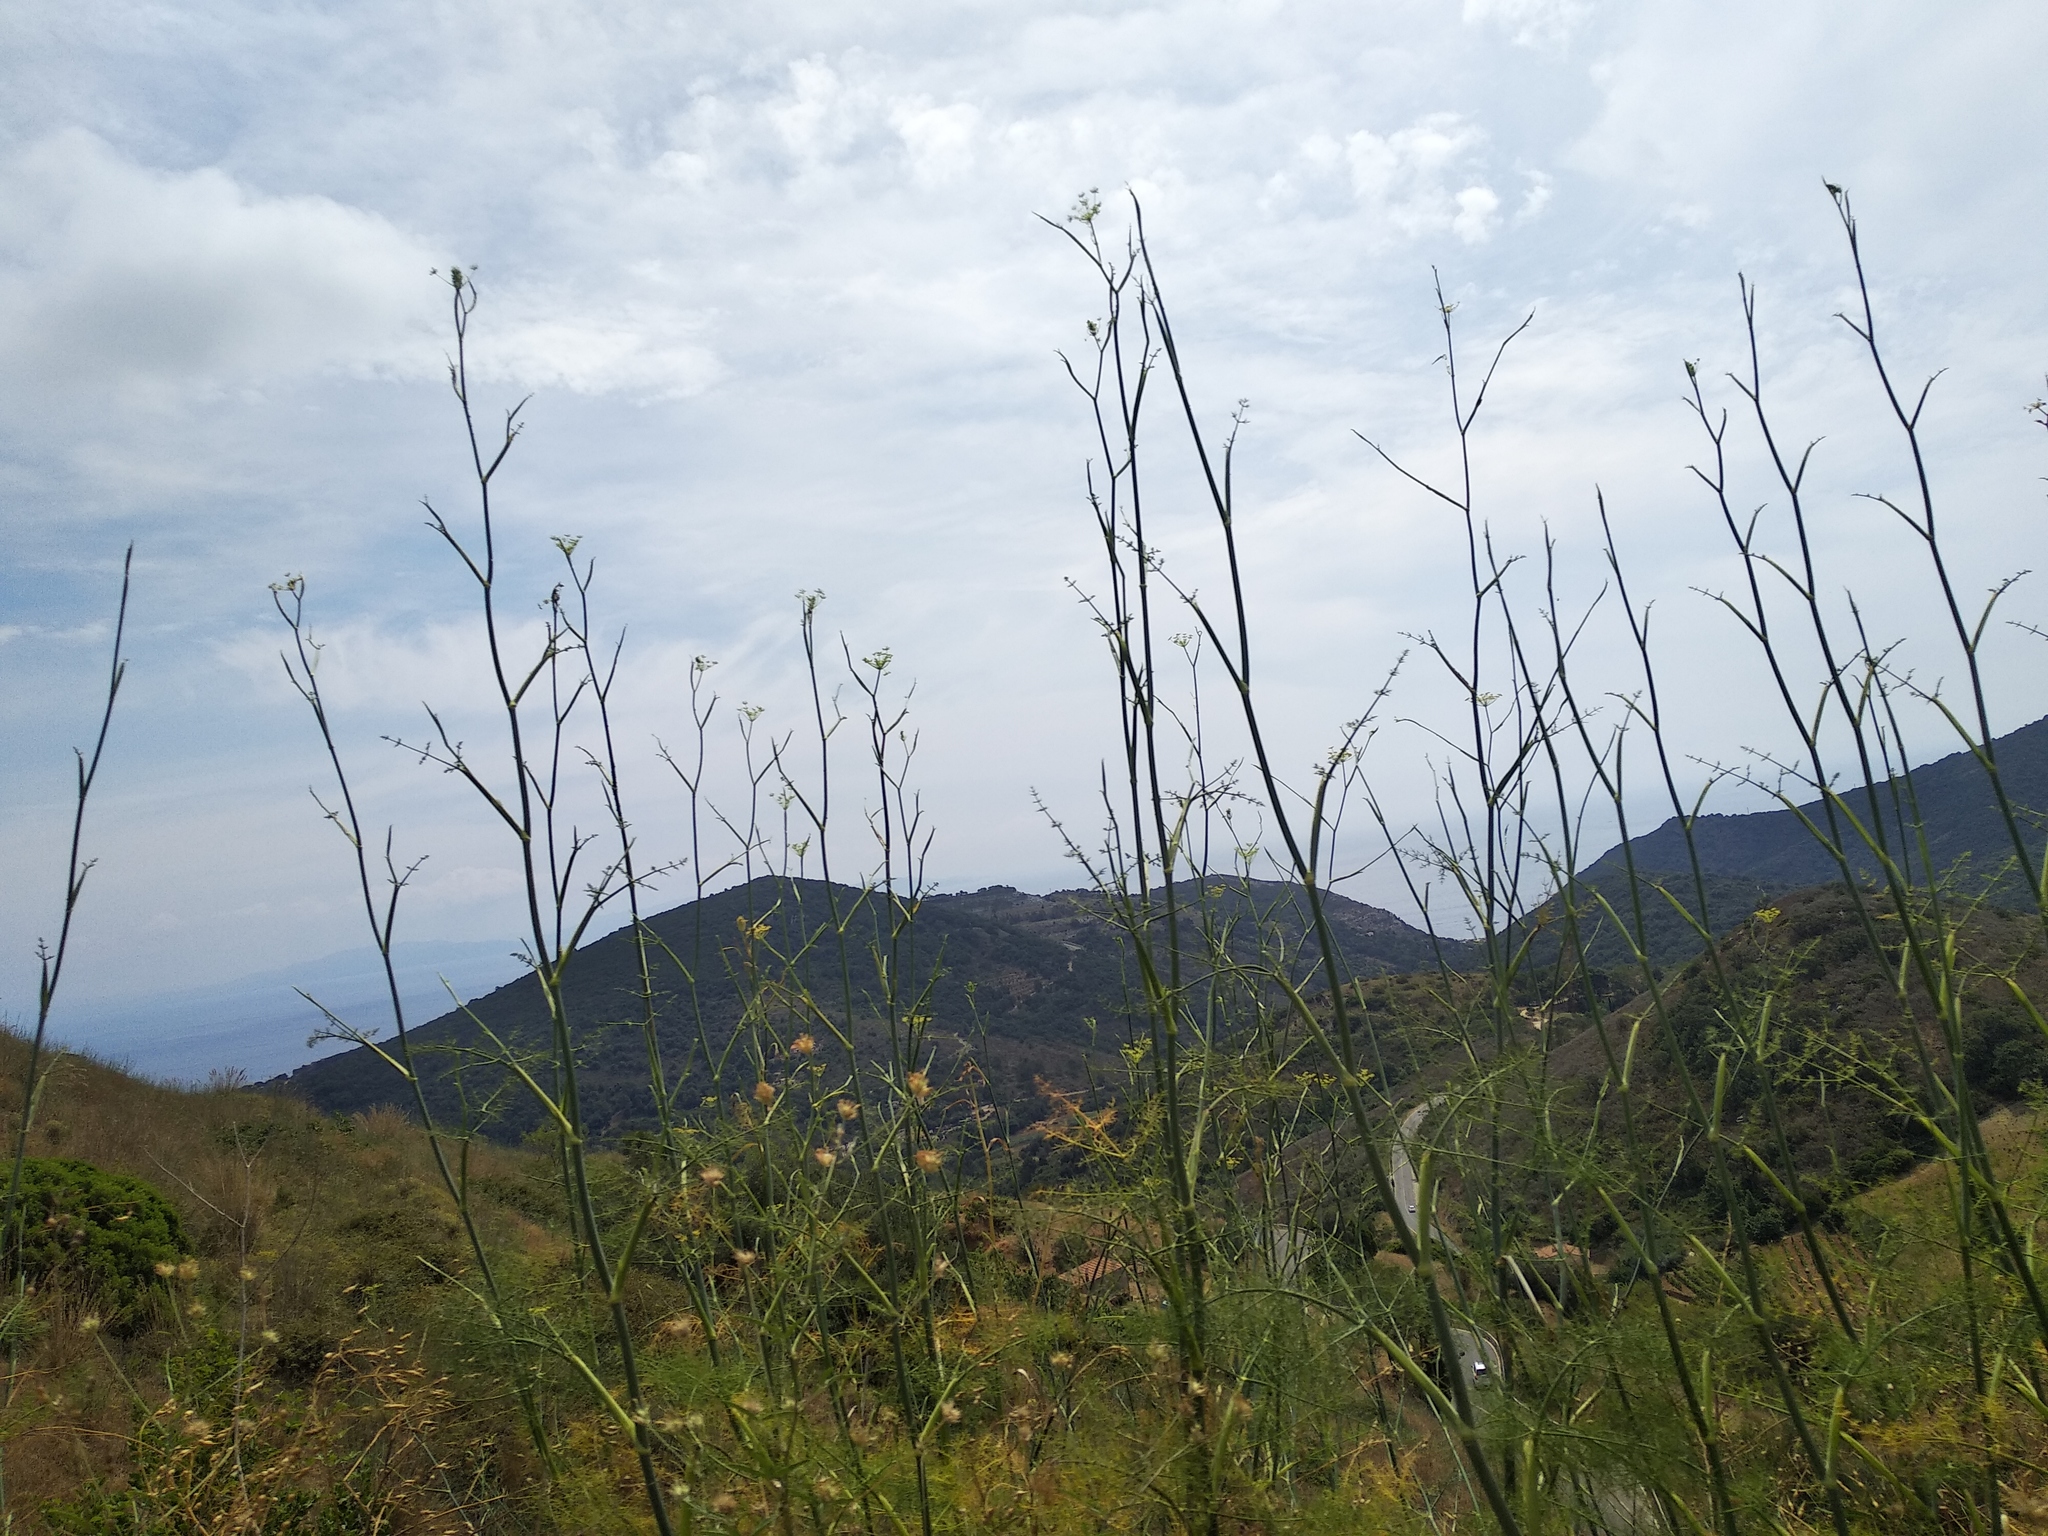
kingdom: Plantae
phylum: Tracheophyta
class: Magnoliopsida
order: Apiales
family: Apiaceae
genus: Foeniculum
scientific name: Foeniculum vulgare
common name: Fennel
